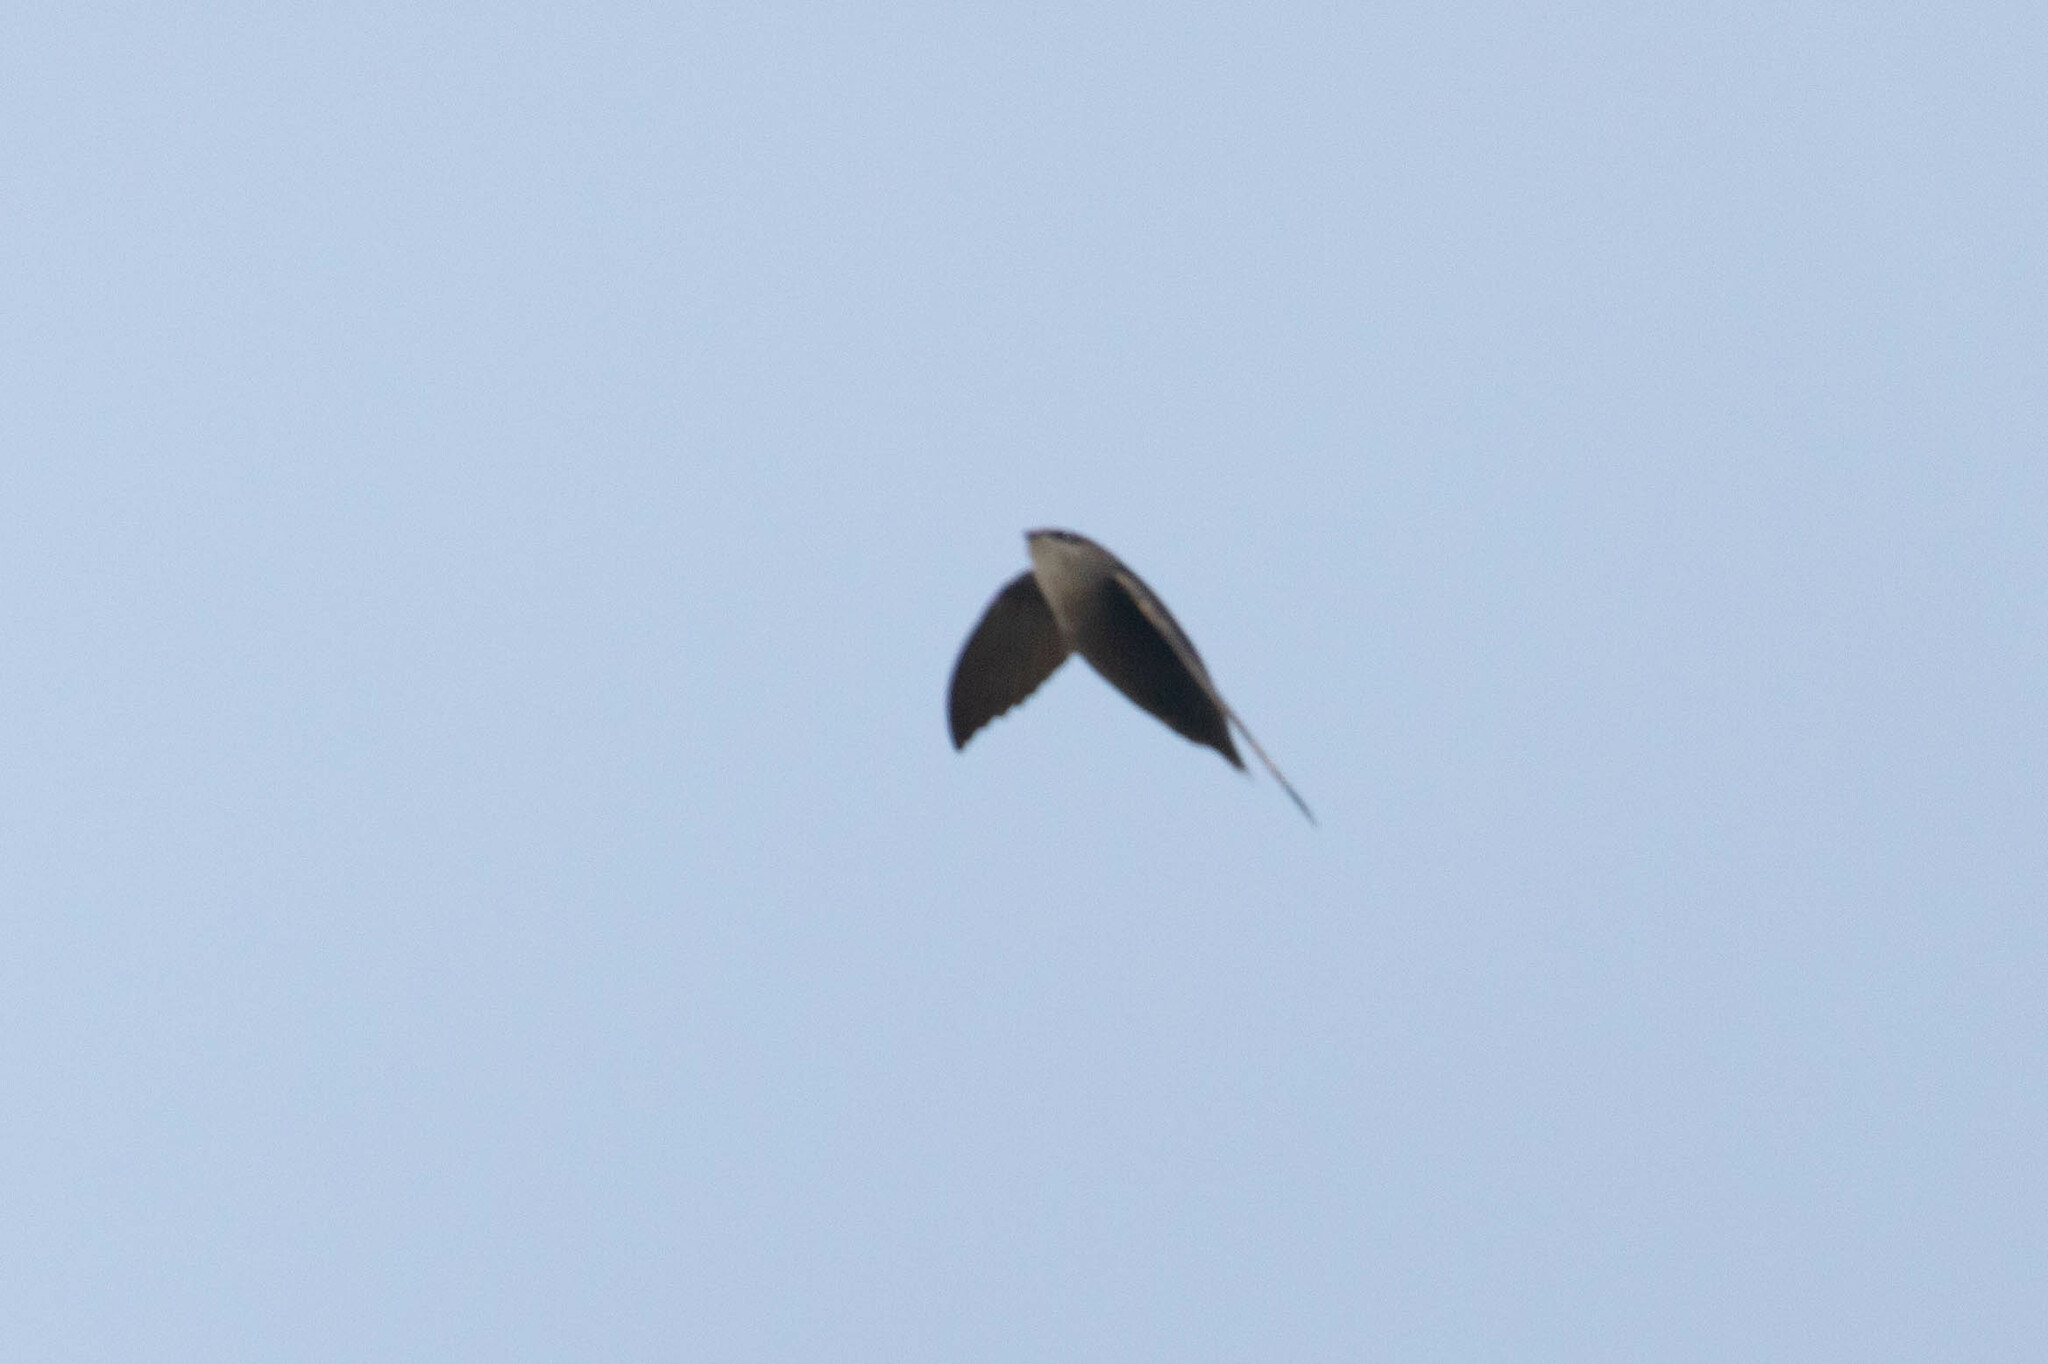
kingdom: Animalia
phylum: Chordata
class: Aves
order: Apodiformes
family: Apodidae
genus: Chaetura
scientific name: Chaetura pelagica
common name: Chimney swift
